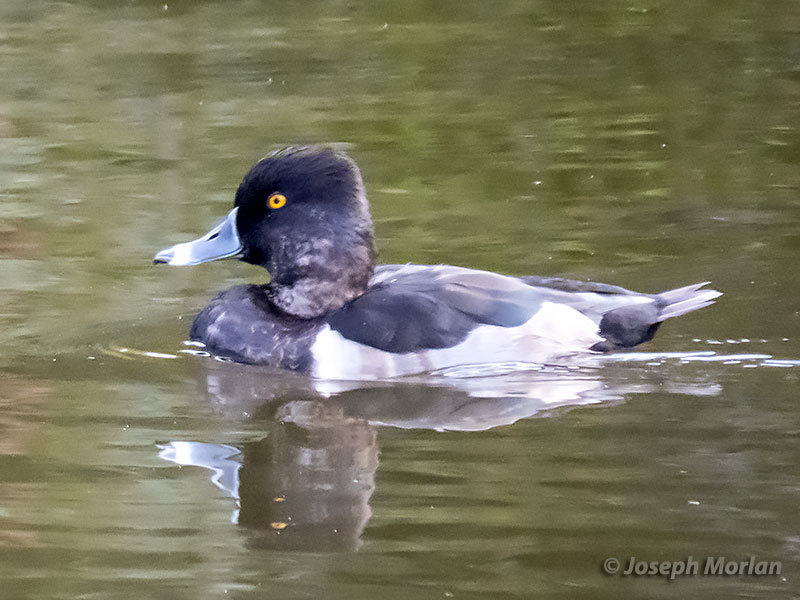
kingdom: Animalia
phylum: Chordata
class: Aves
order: Anseriformes
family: Anatidae
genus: Aythya
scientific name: Aythya collaris
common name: Ring-necked duck
